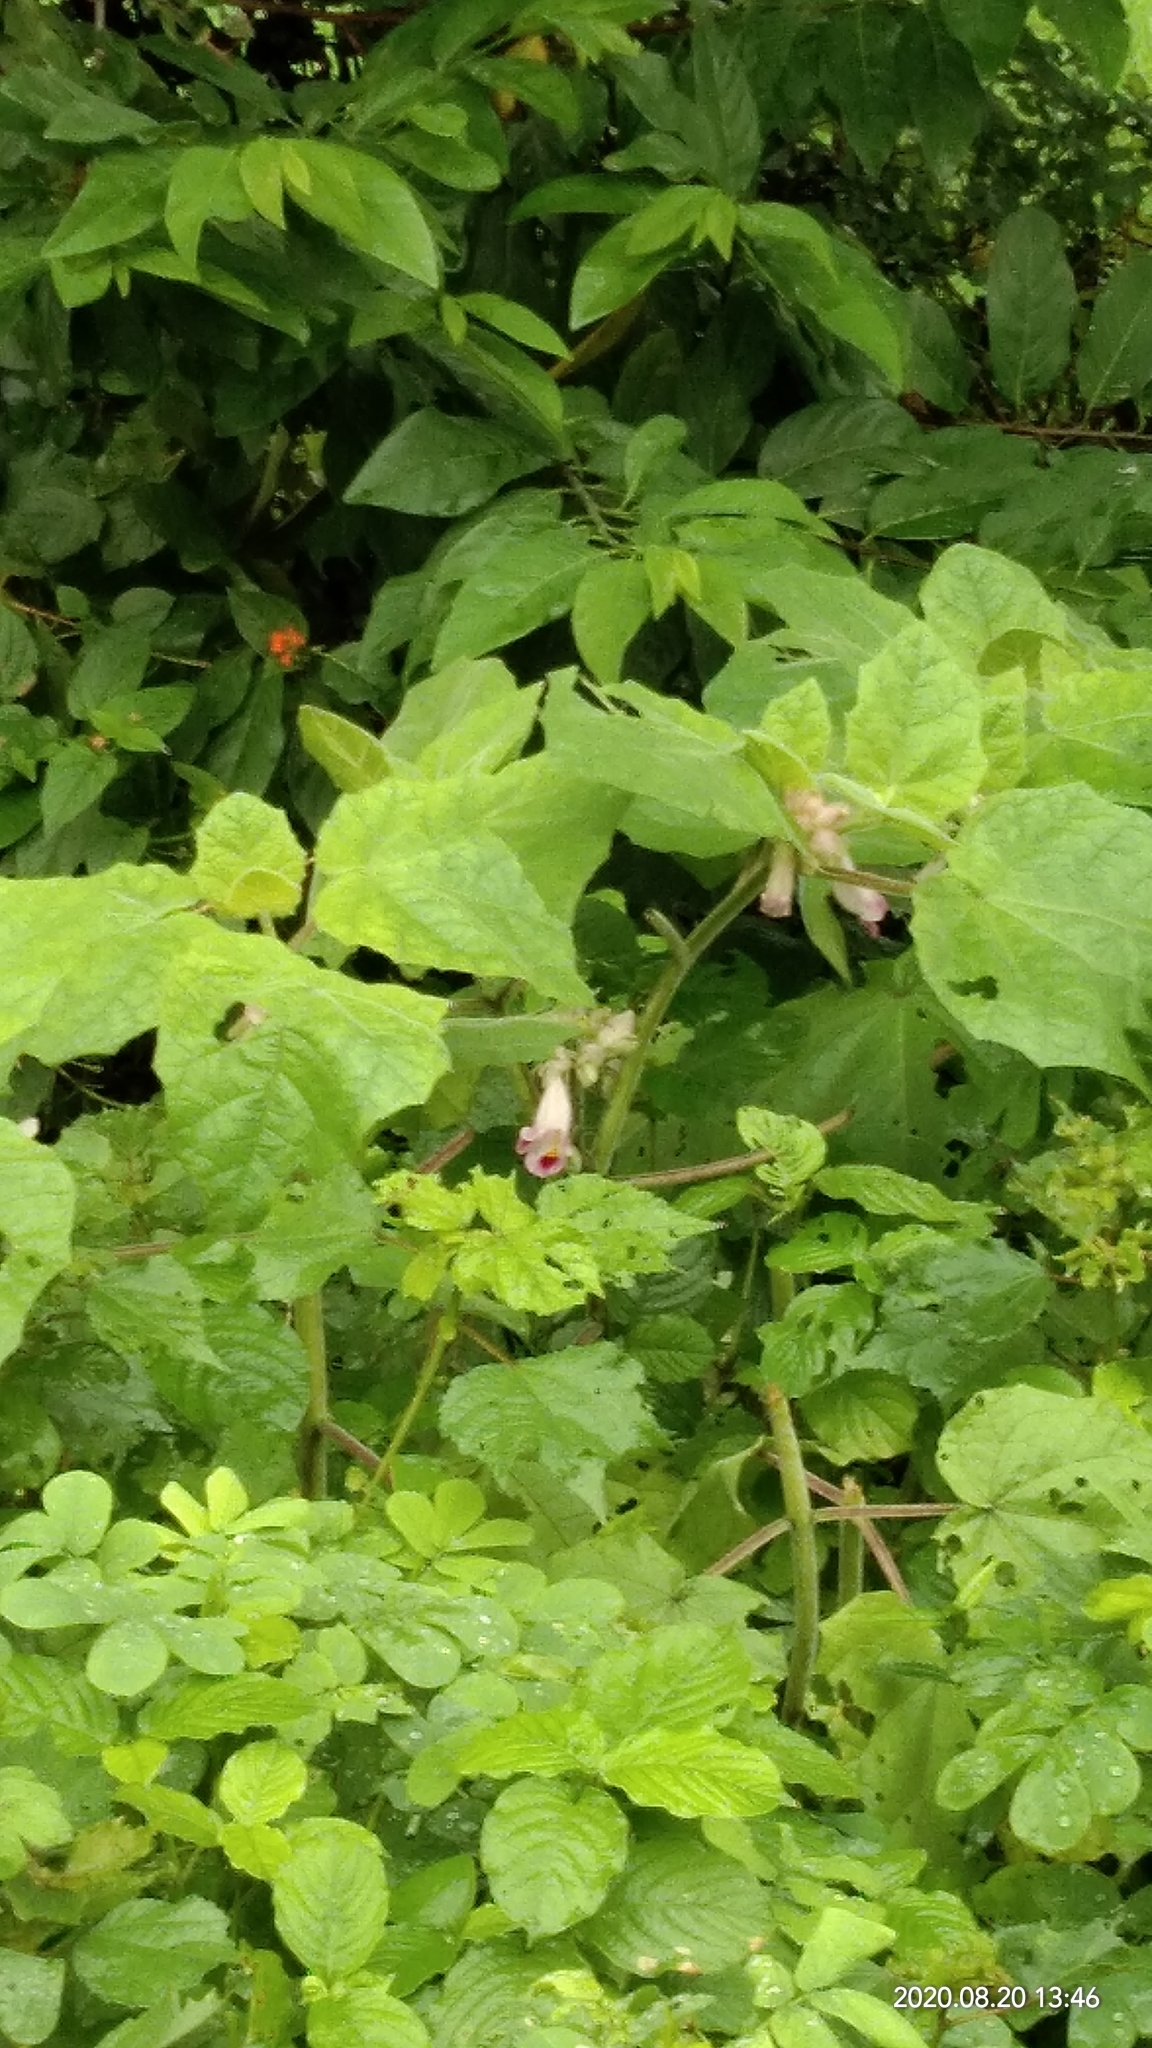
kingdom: Plantae
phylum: Tracheophyta
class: Magnoliopsida
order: Lamiales
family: Martyniaceae
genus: Martynia
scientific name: Martynia annua
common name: Tiger's-claw
